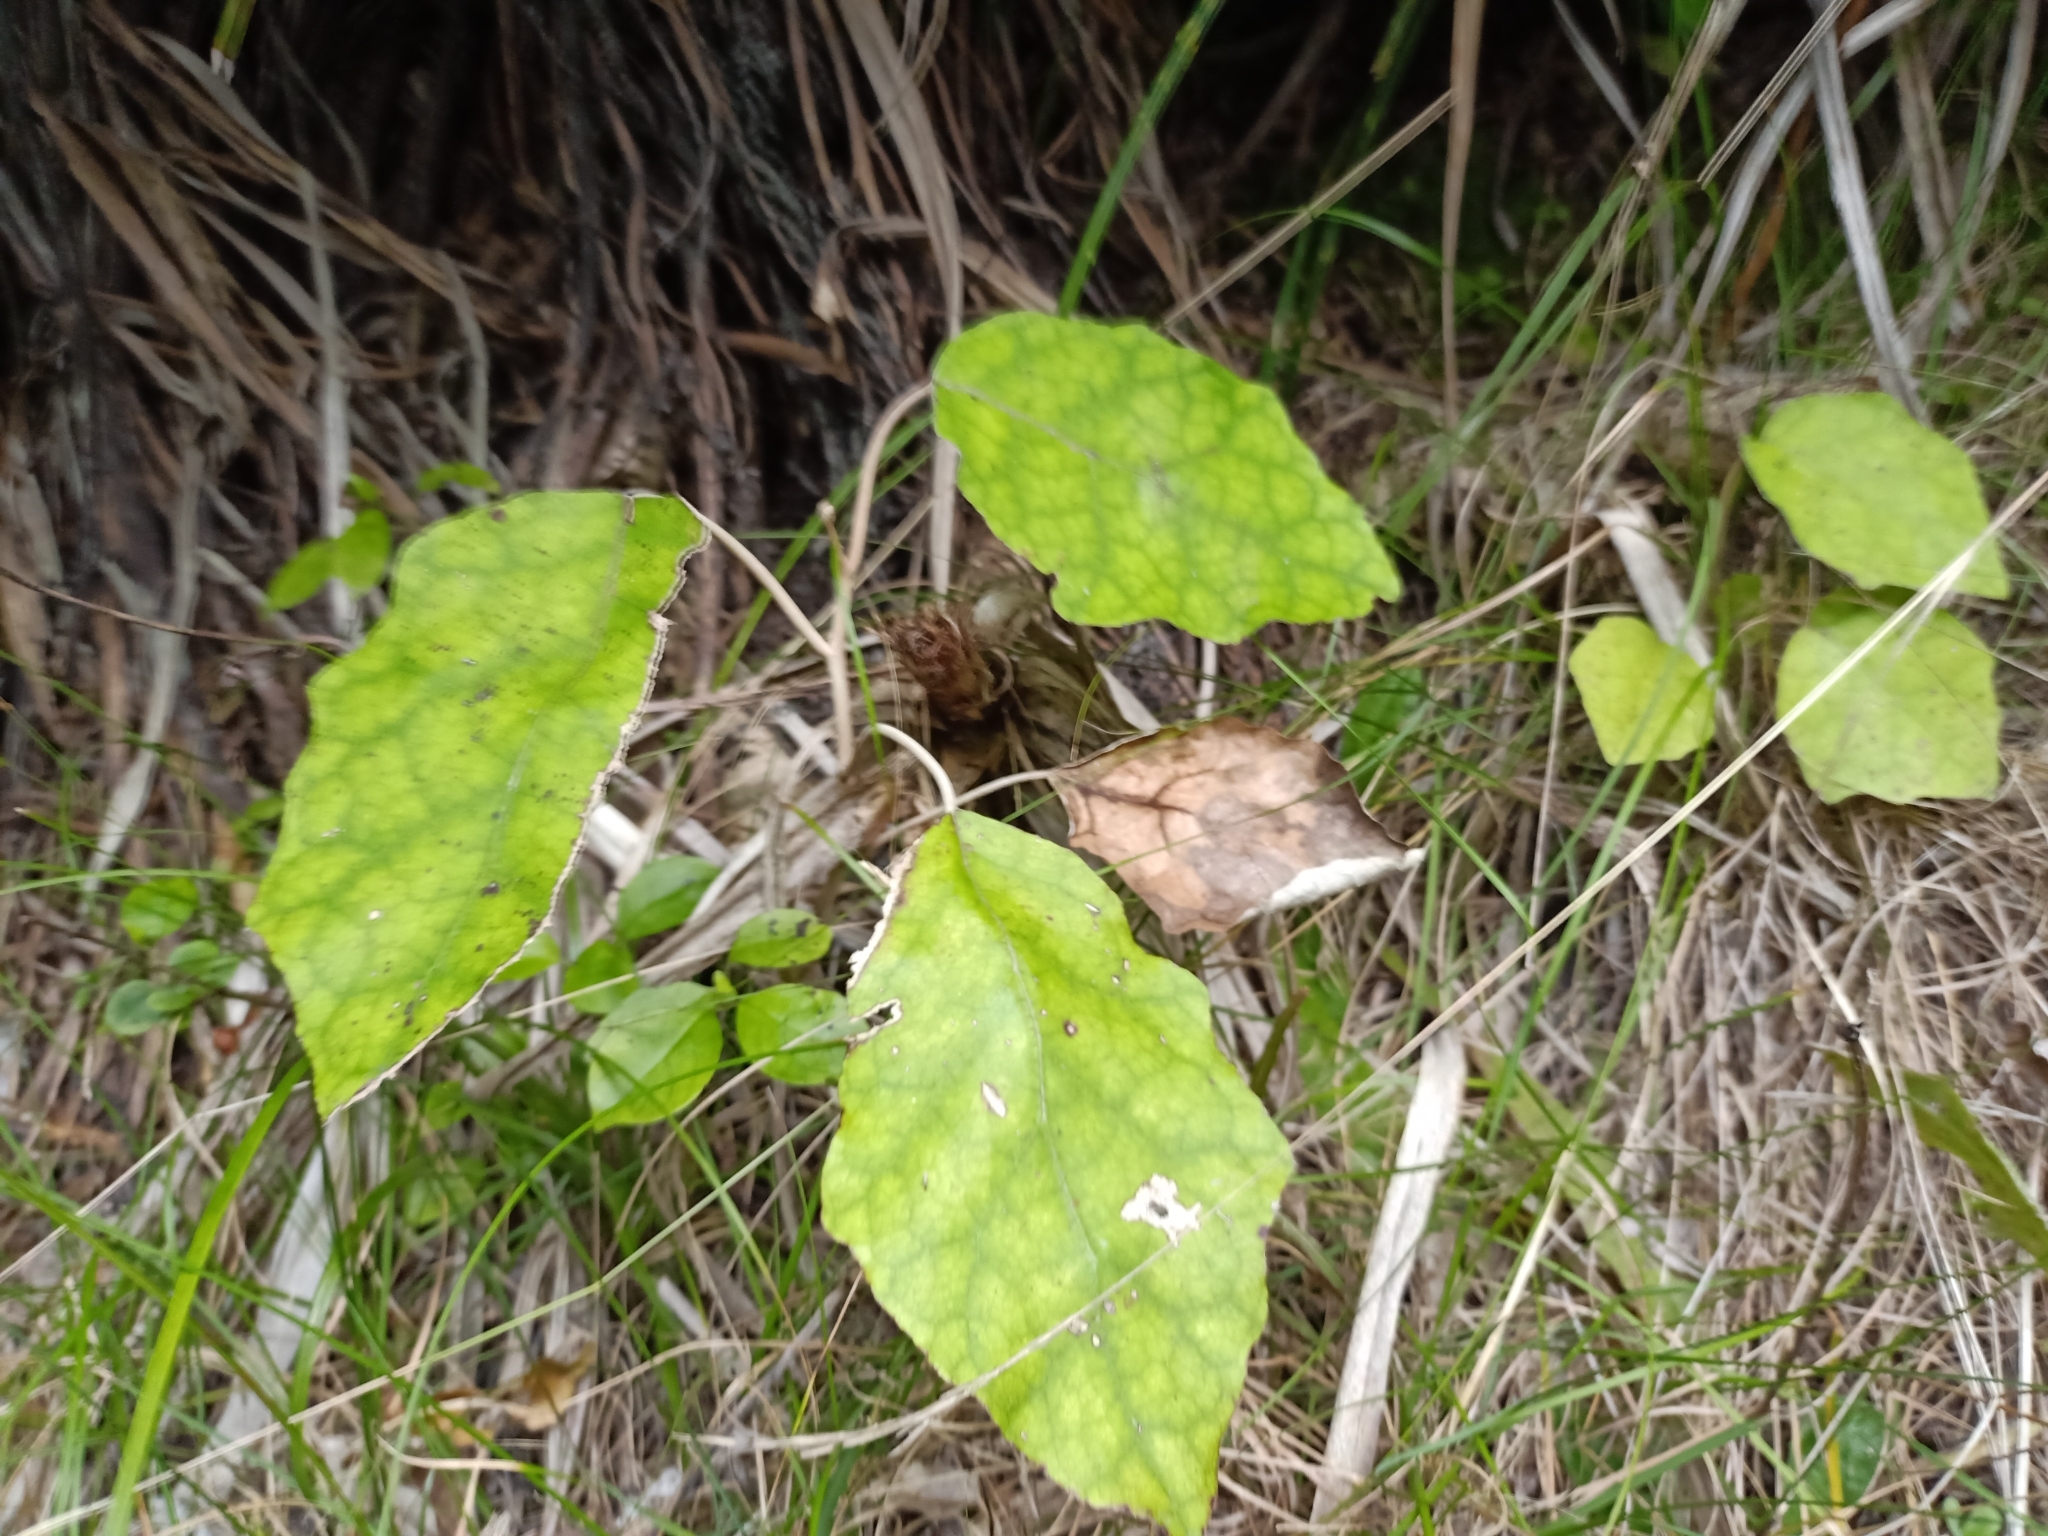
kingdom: Plantae
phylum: Tracheophyta
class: Magnoliopsida
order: Asterales
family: Asteraceae
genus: Brachyglottis
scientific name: Brachyglottis repanda
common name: Hedge ragwort
